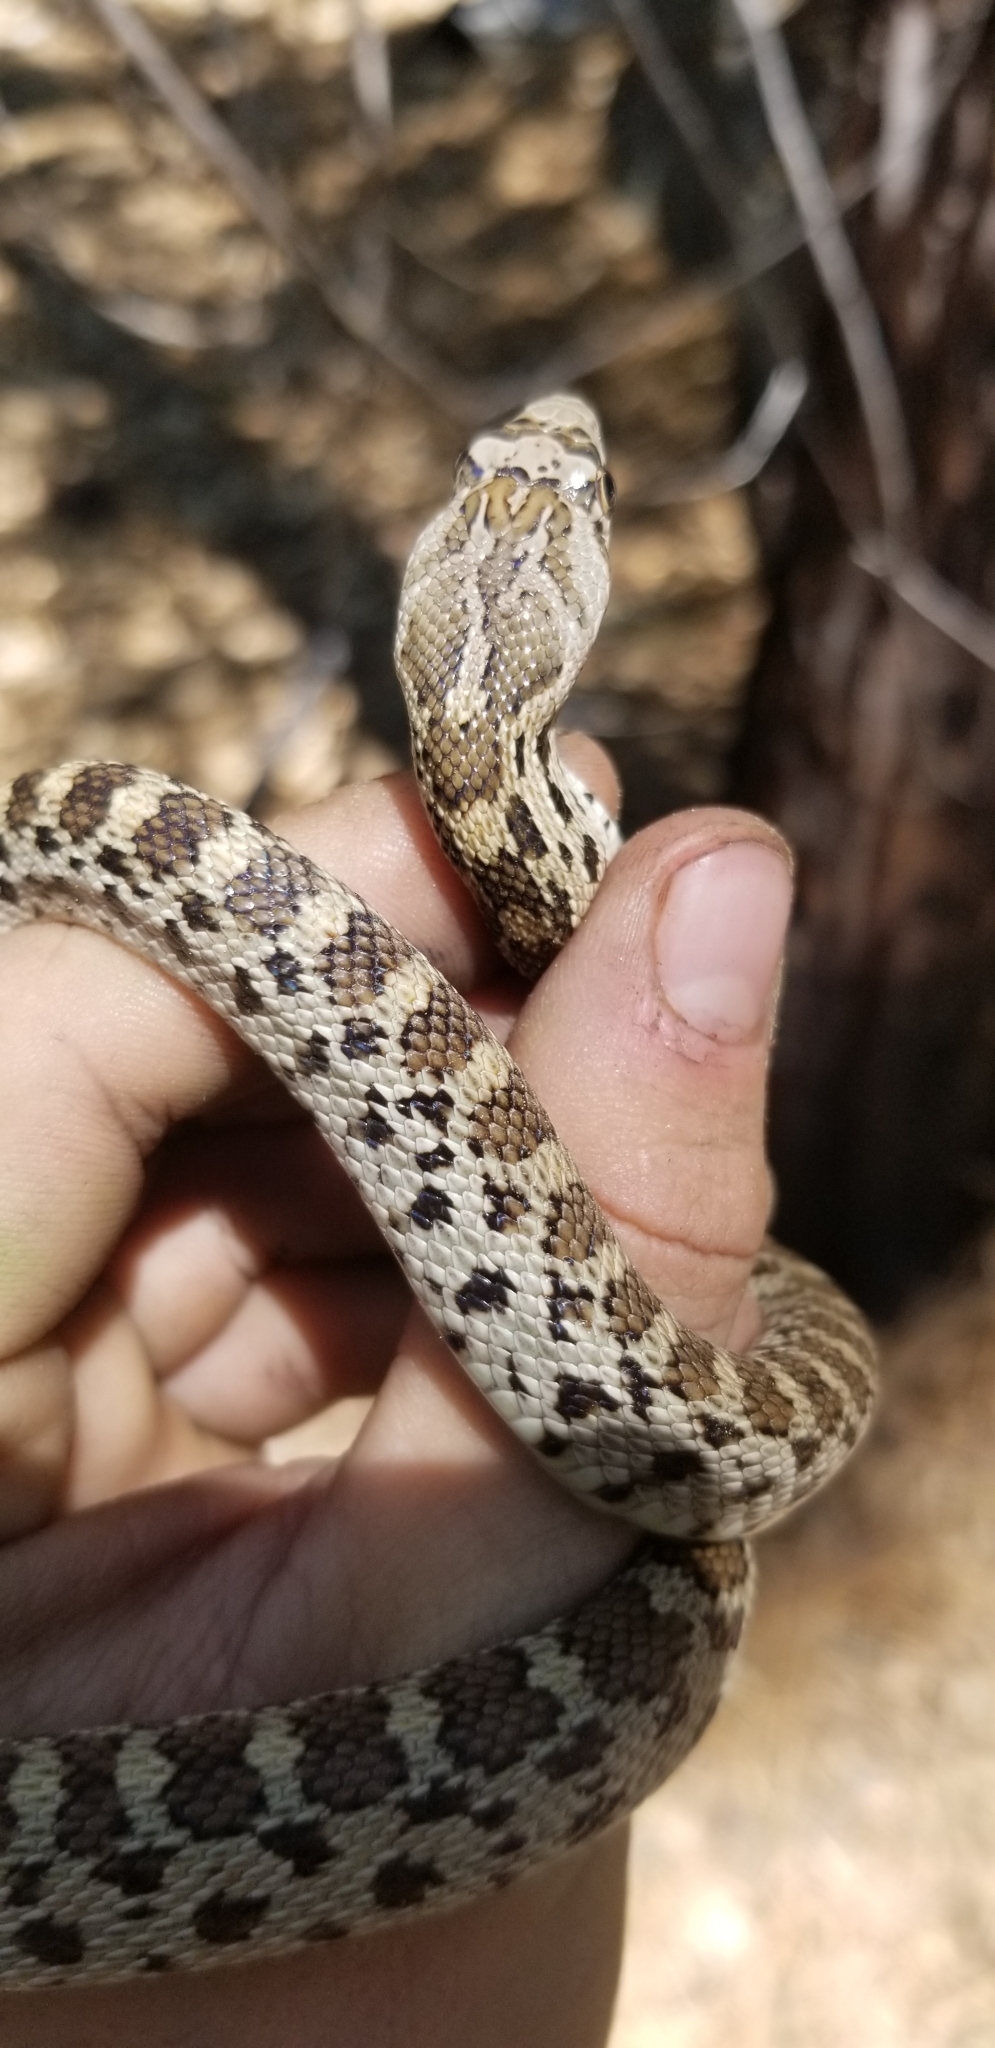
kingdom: Animalia
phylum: Chordata
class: Squamata
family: Colubridae
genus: Pituophis
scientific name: Pituophis catenifer
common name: Gopher snake
